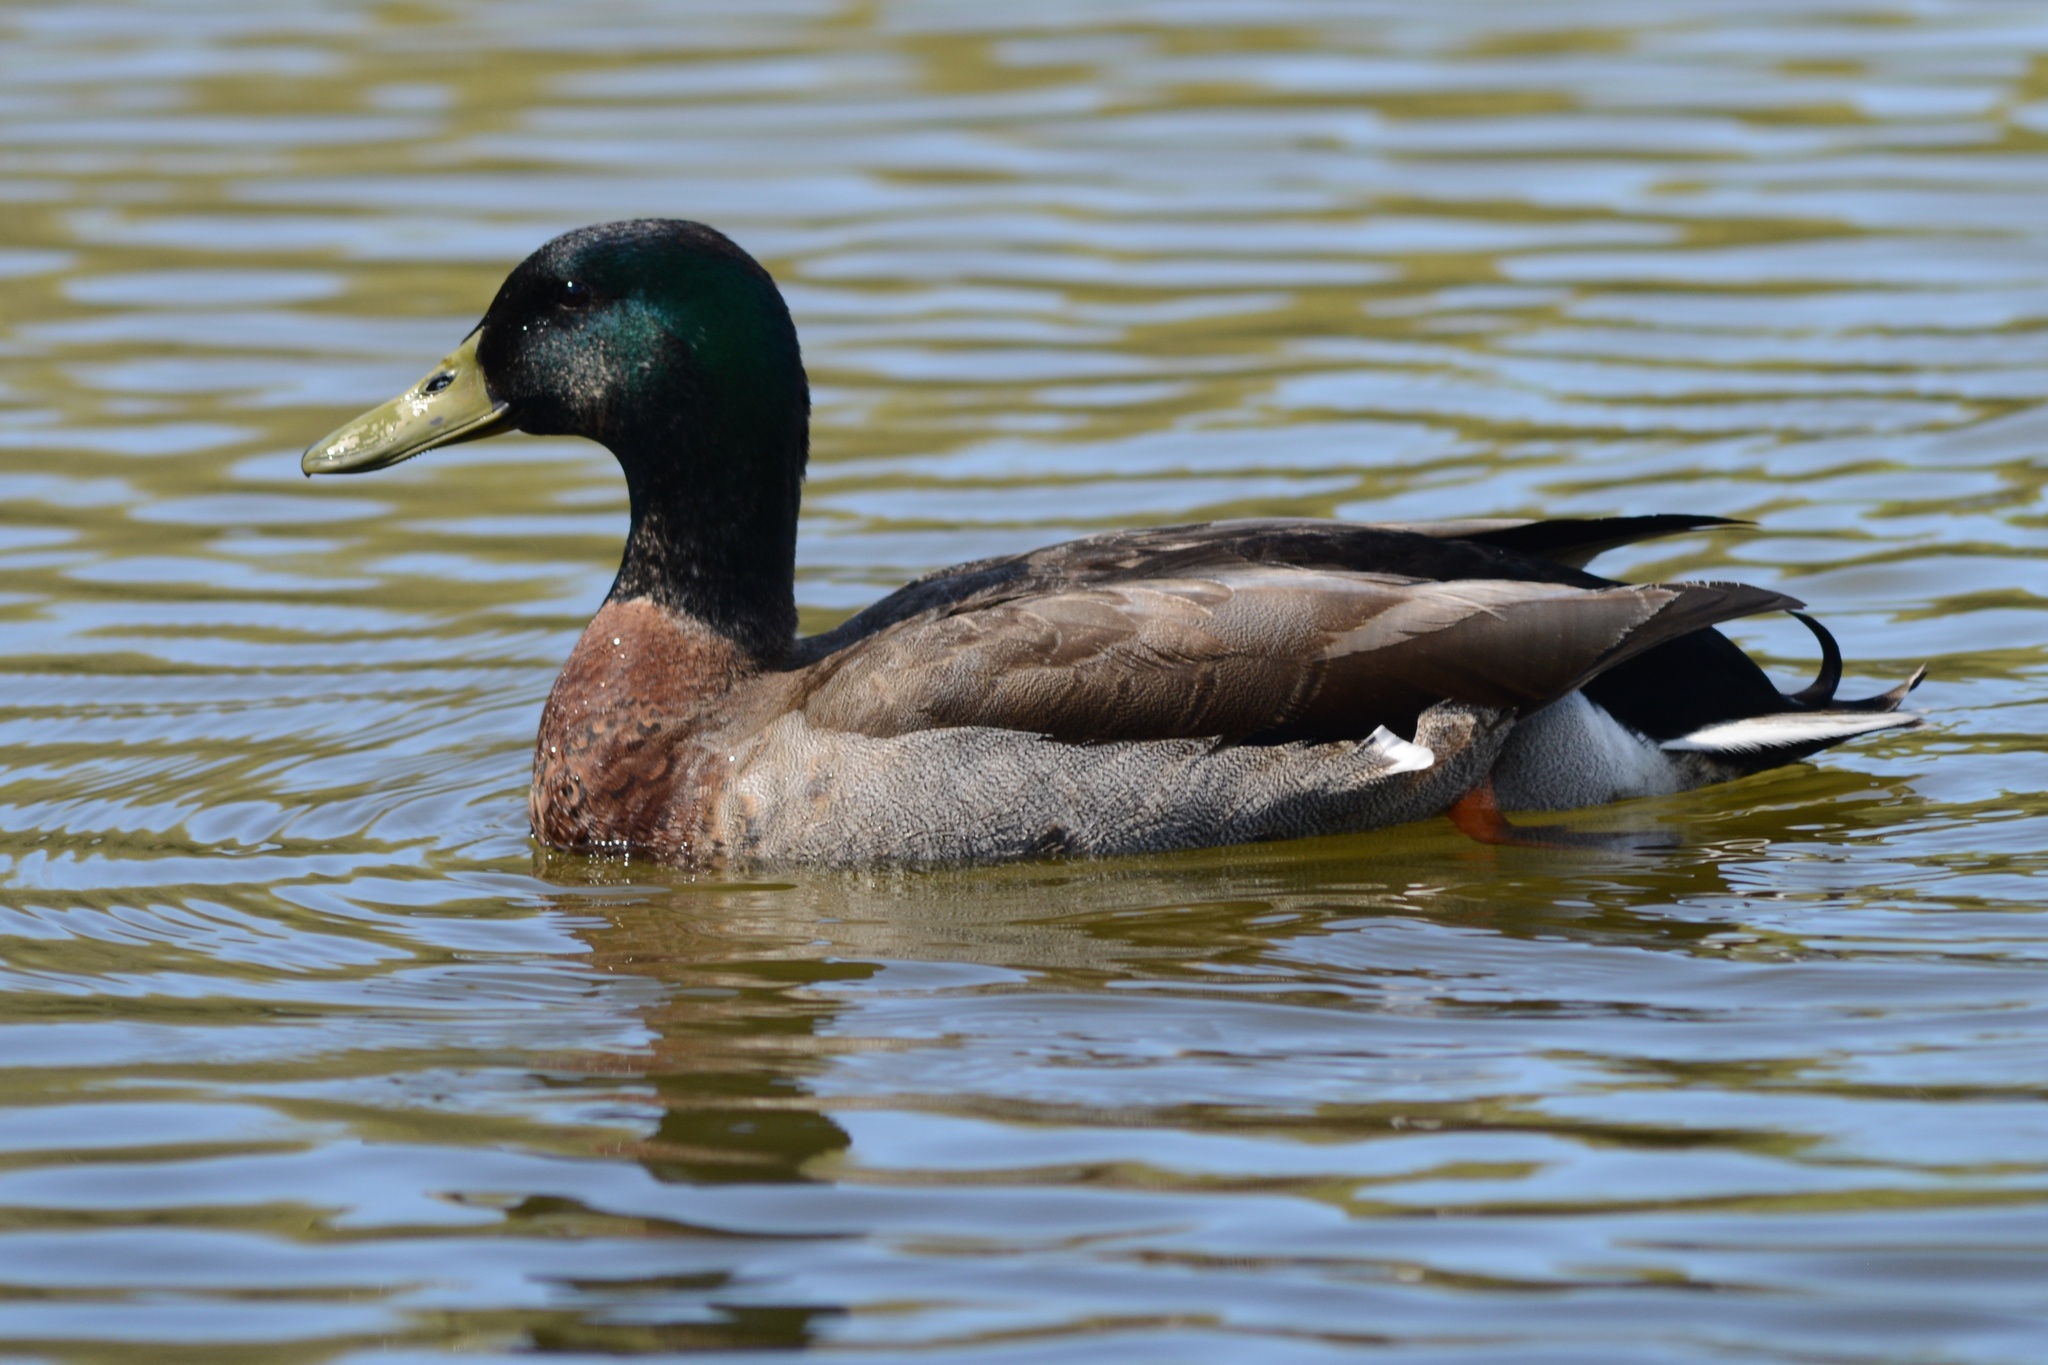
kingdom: Animalia
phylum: Chordata
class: Aves
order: Anseriformes
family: Anatidae
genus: Anas
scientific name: Anas platyrhynchos
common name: Mallard
